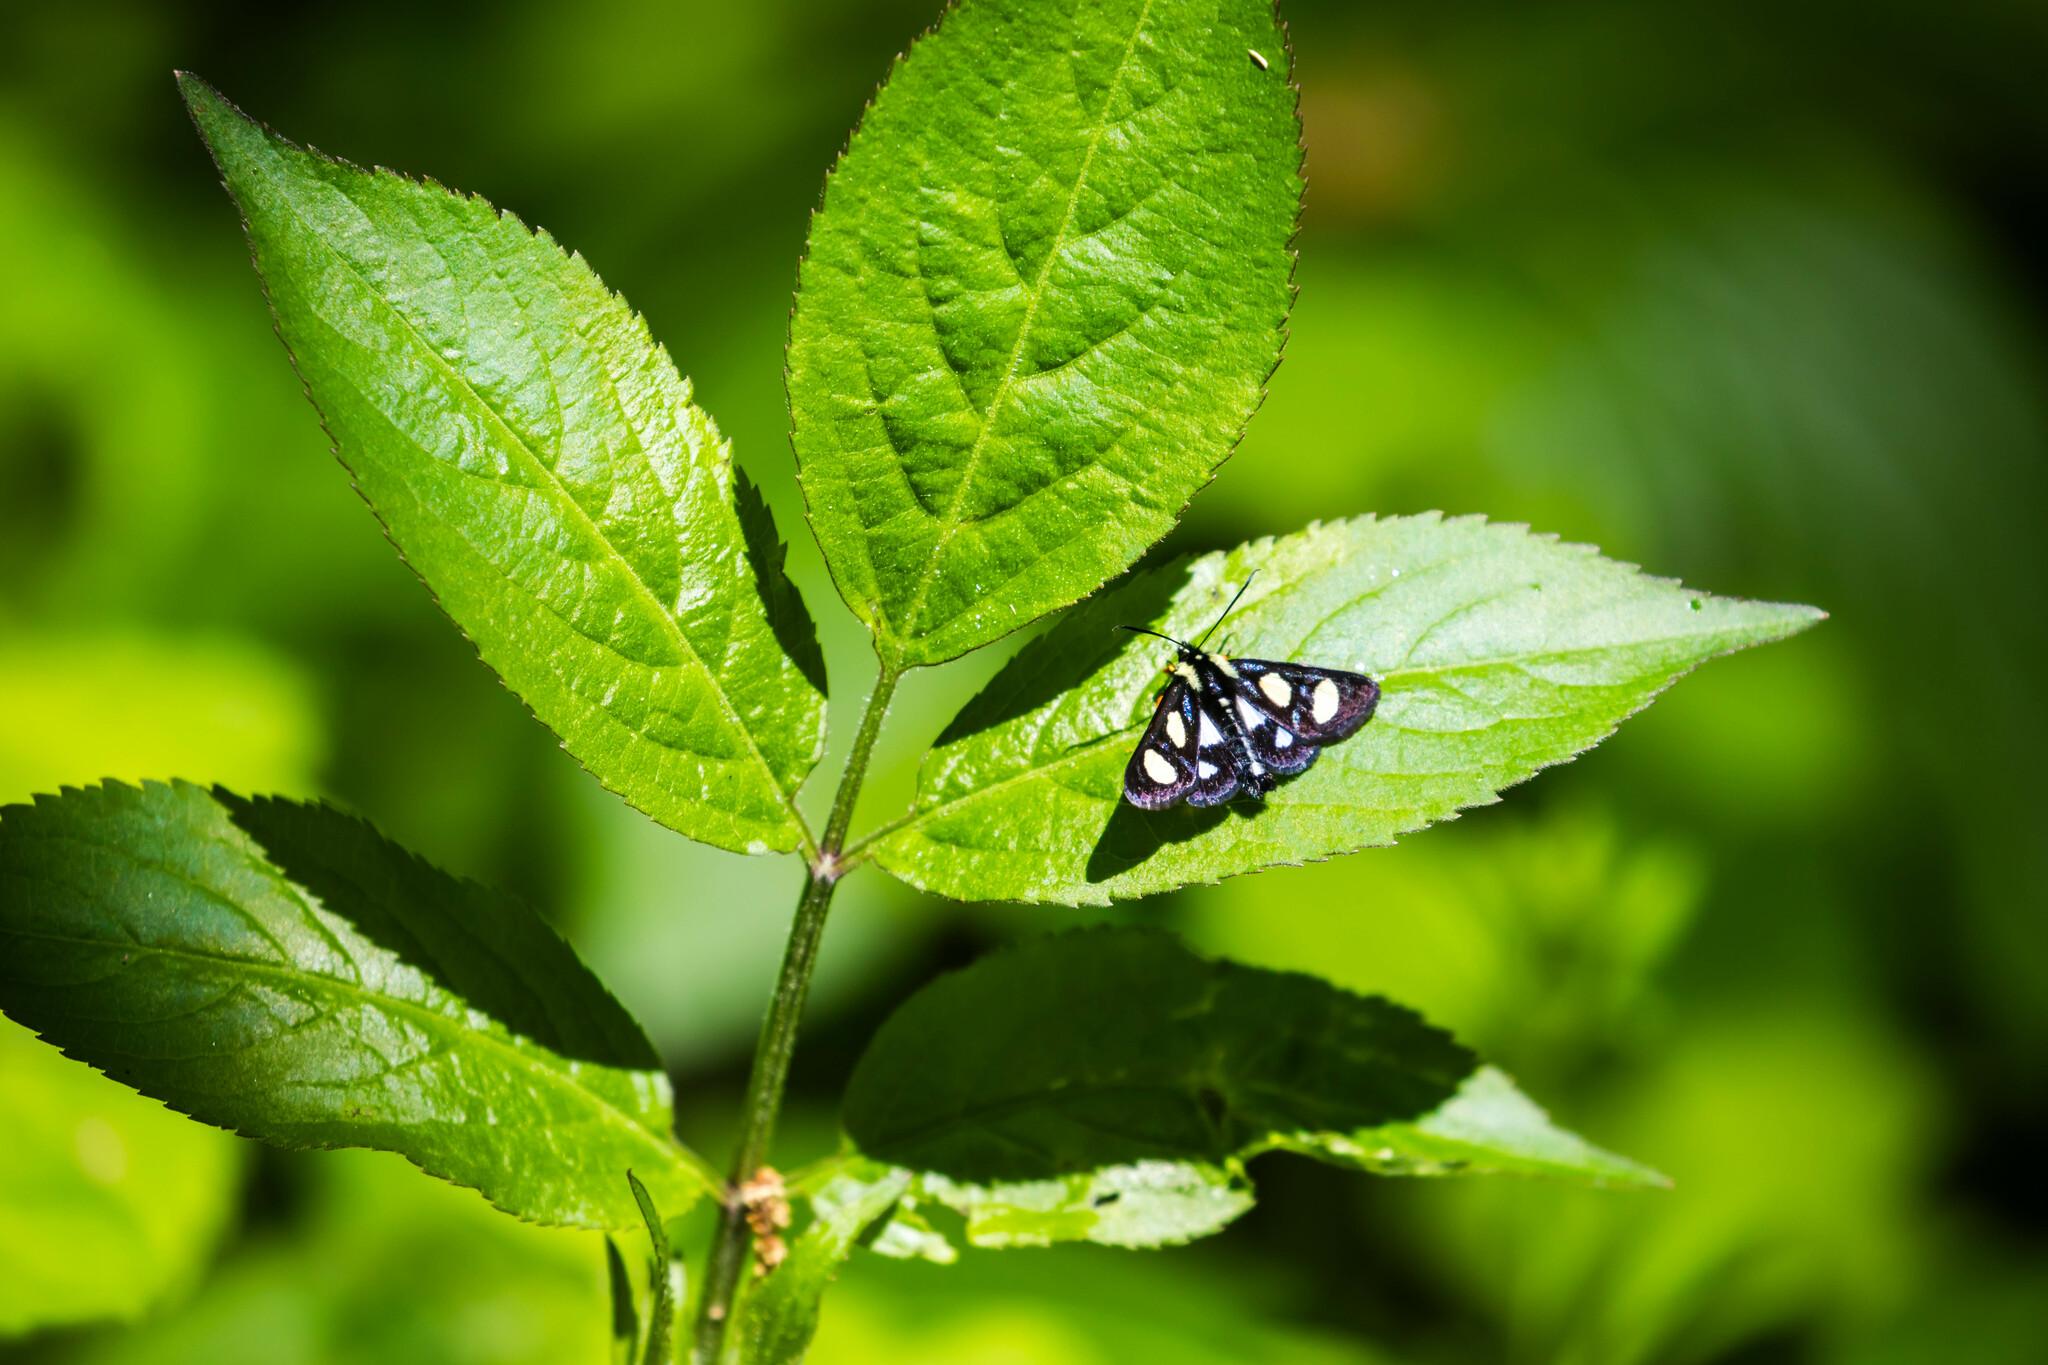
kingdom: Animalia
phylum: Arthropoda
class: Insecta
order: Lepidoptera
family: Noctuidae
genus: Alypia
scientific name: Alypia octomaculata
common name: Eight-spotted forester
